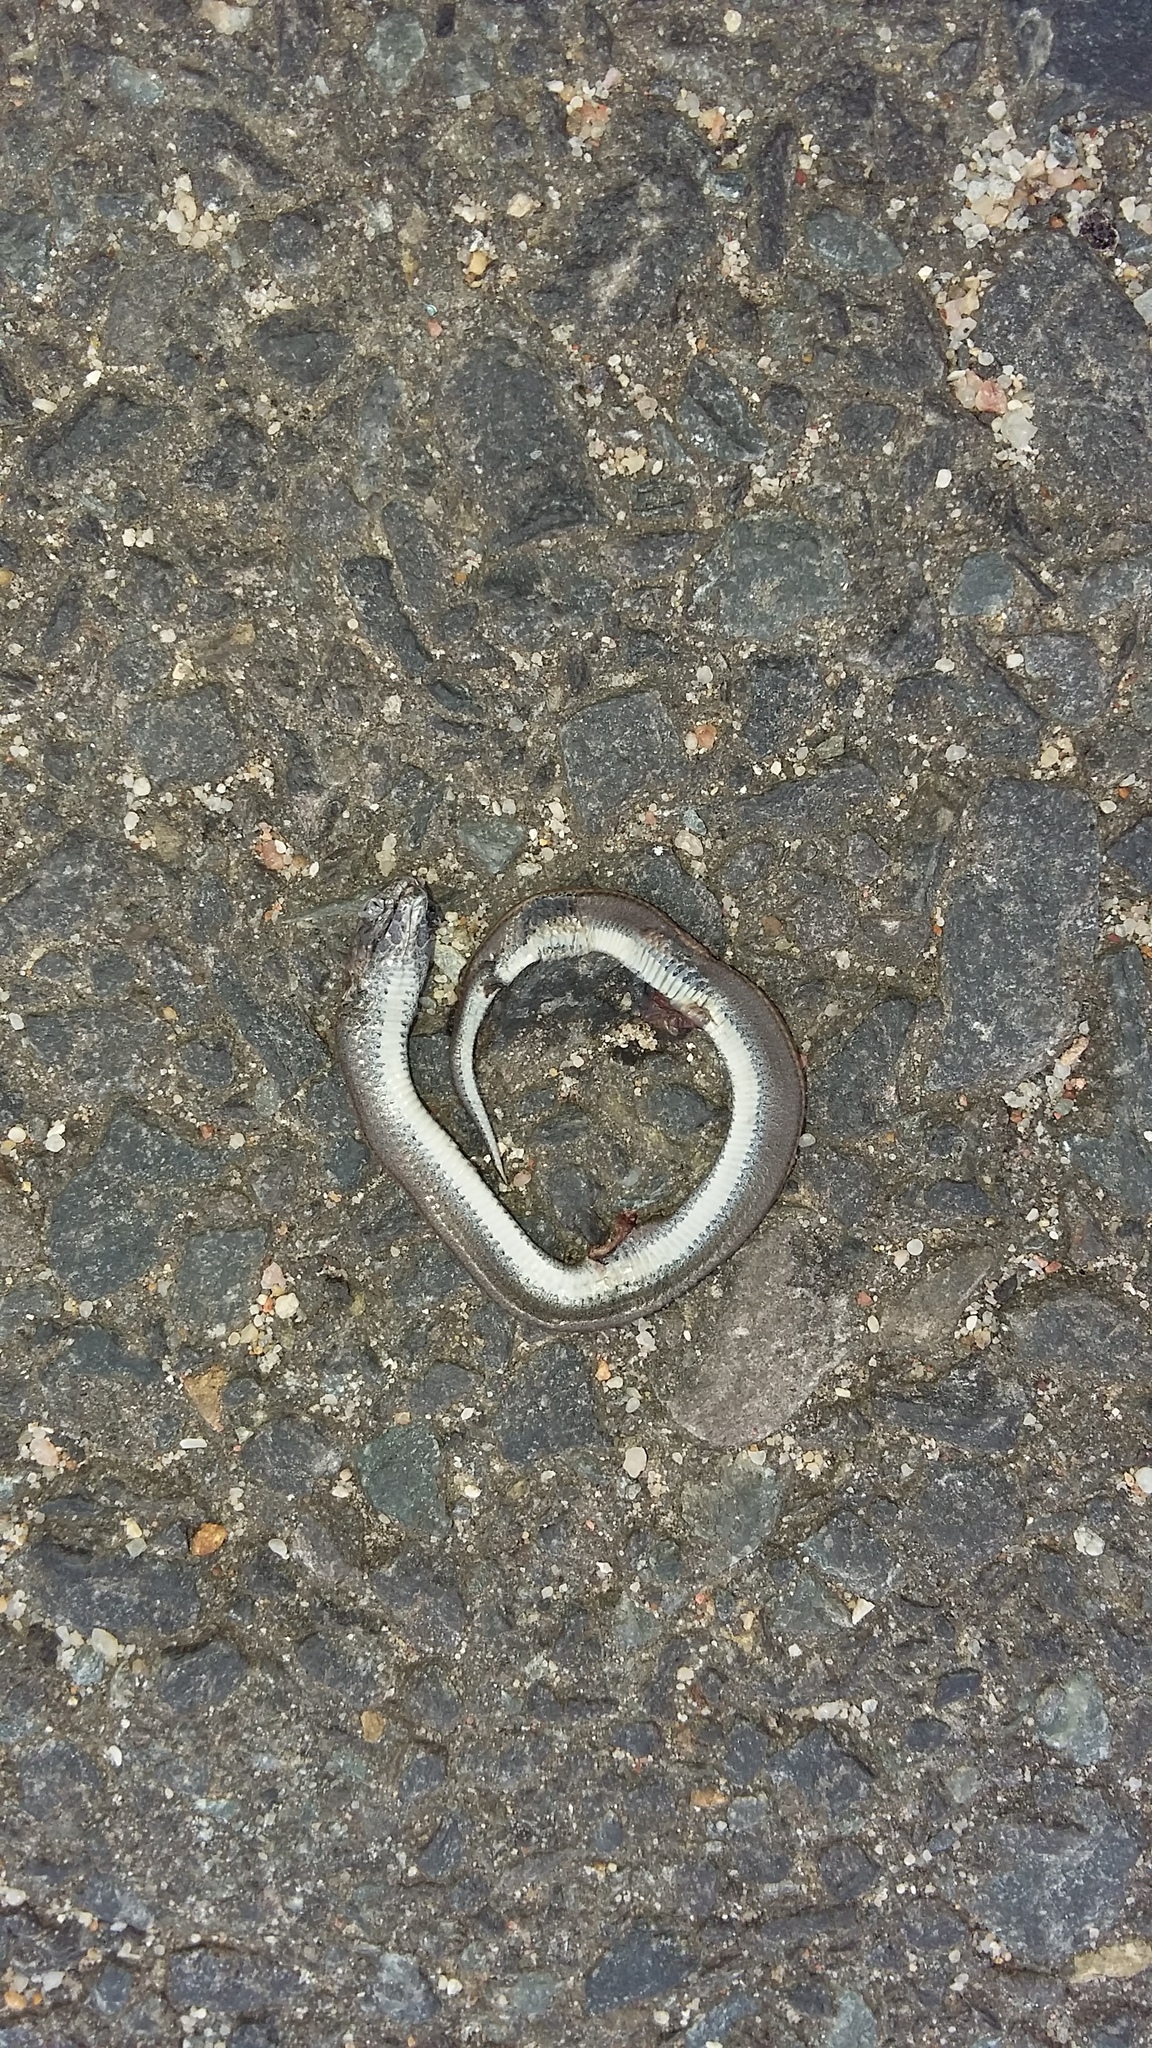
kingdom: Animalia
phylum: Chordata
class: Squamata
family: Pseudoxyrhophiidae
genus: Duberria
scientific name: Duberria lutrix
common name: Common slug eater
